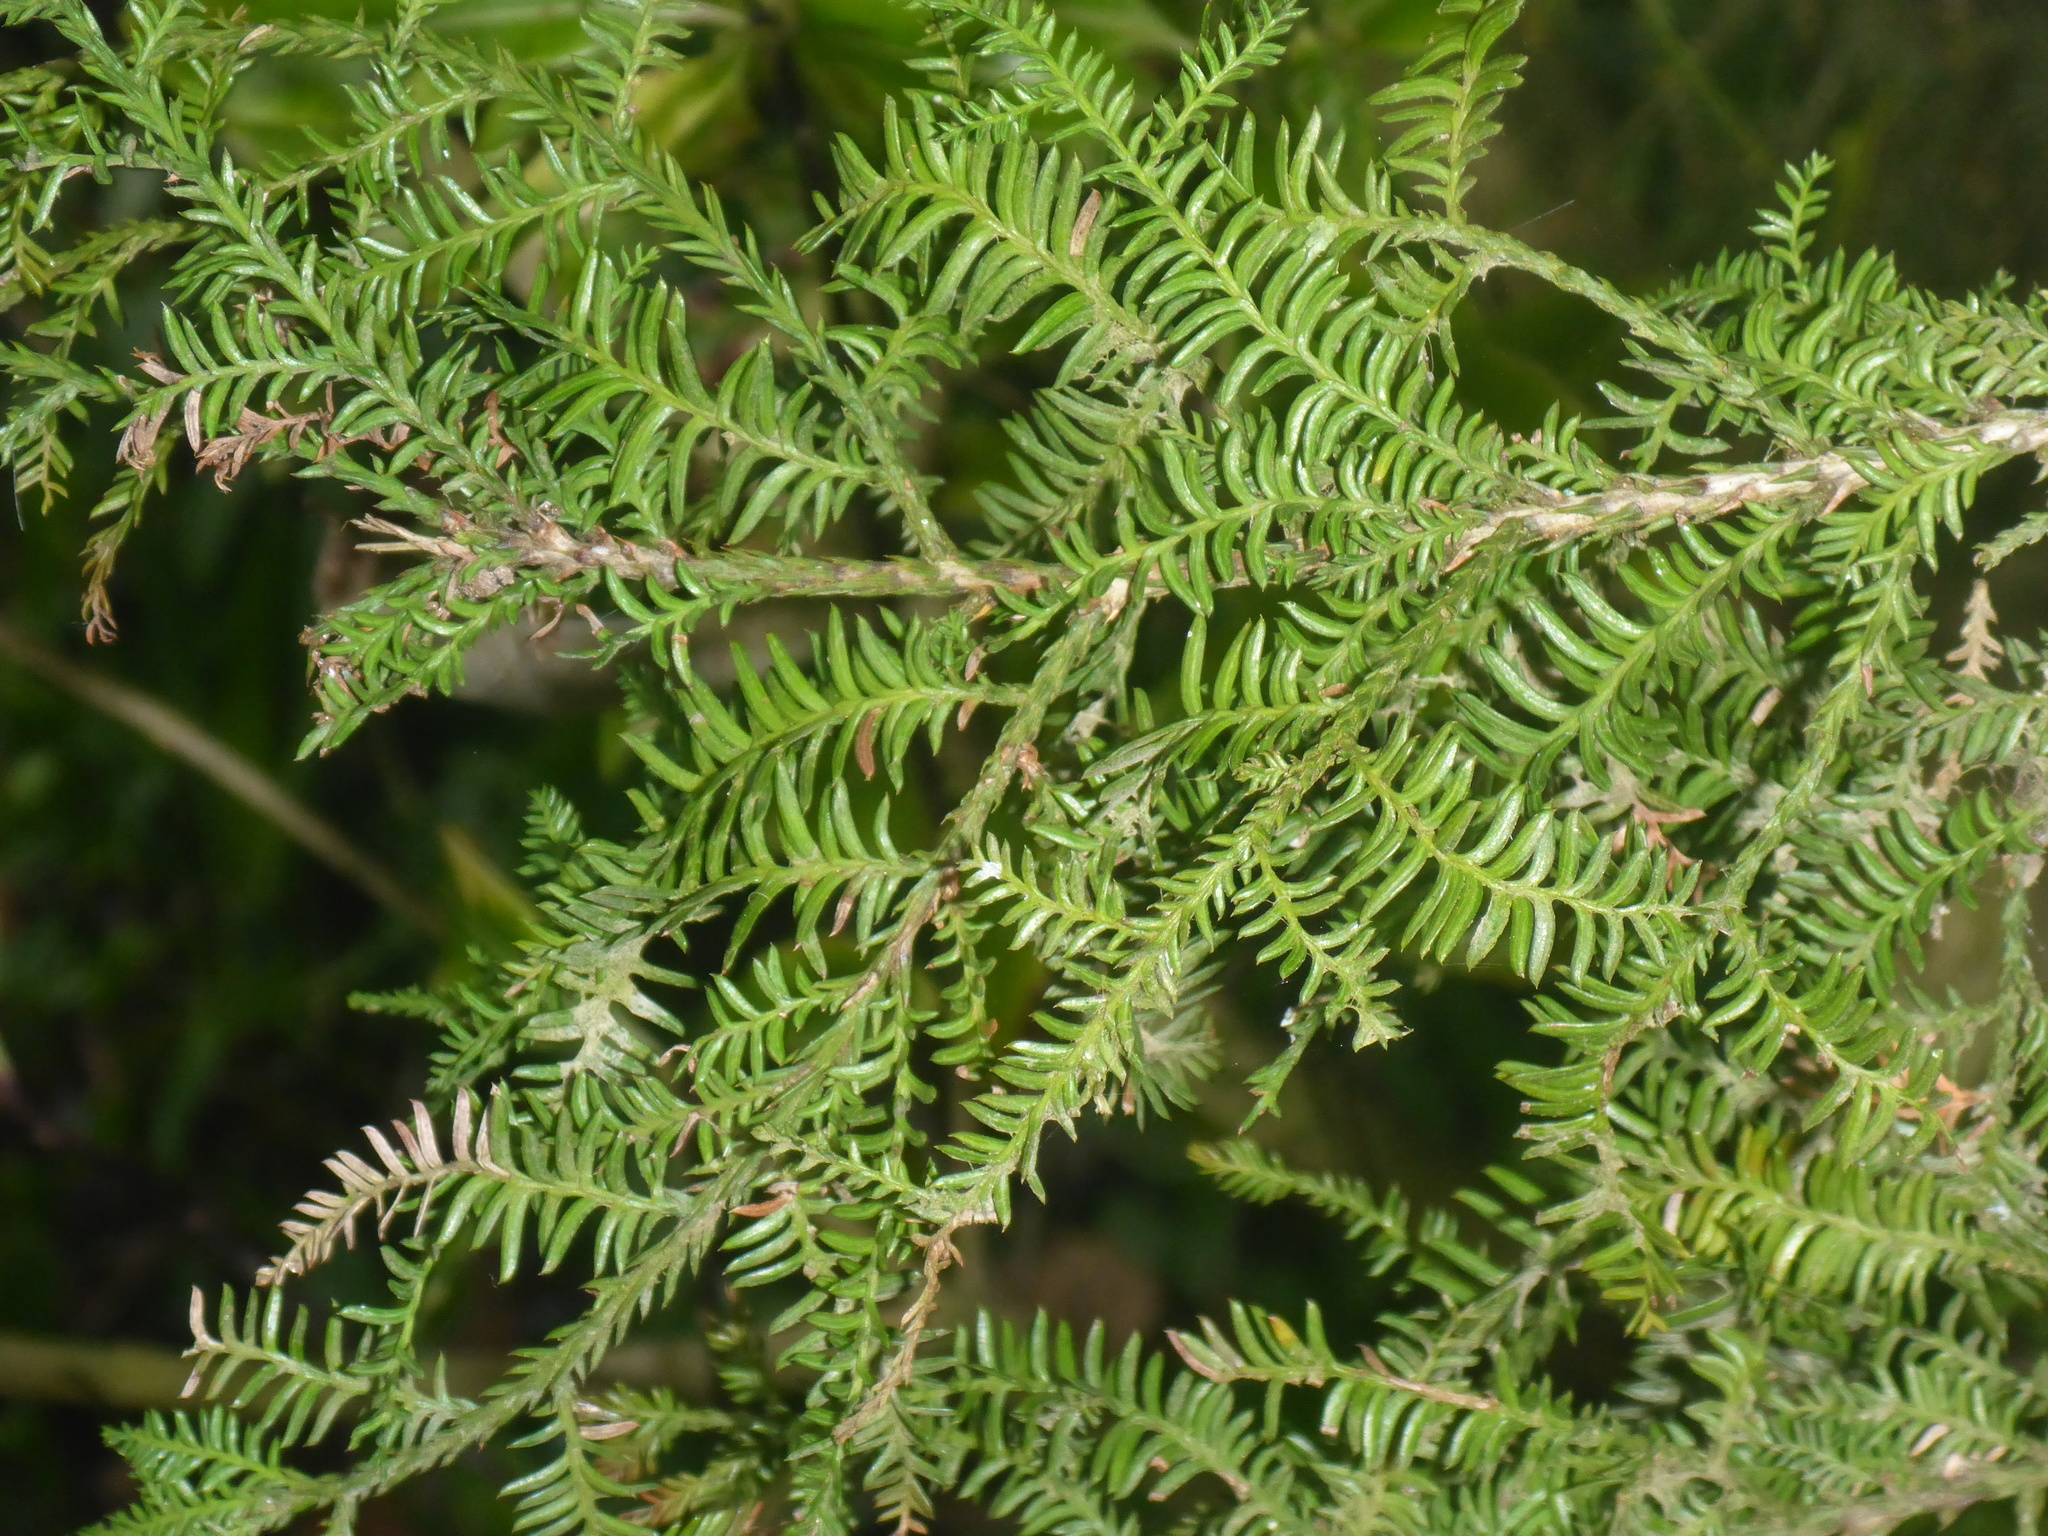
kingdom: Plantae
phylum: Tracheophyta
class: Pinopsida
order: Pinales
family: Podocarpaceae
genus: Prumnopitys
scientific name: Prumnopitys ferruginea
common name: Brown pine
